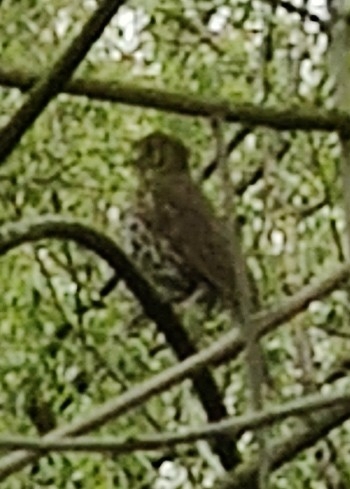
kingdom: Animalia
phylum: Chordata
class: Aves
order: Passeriformes
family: Turdidae
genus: Turdus
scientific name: Turdus philomelos
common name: Song thrush
